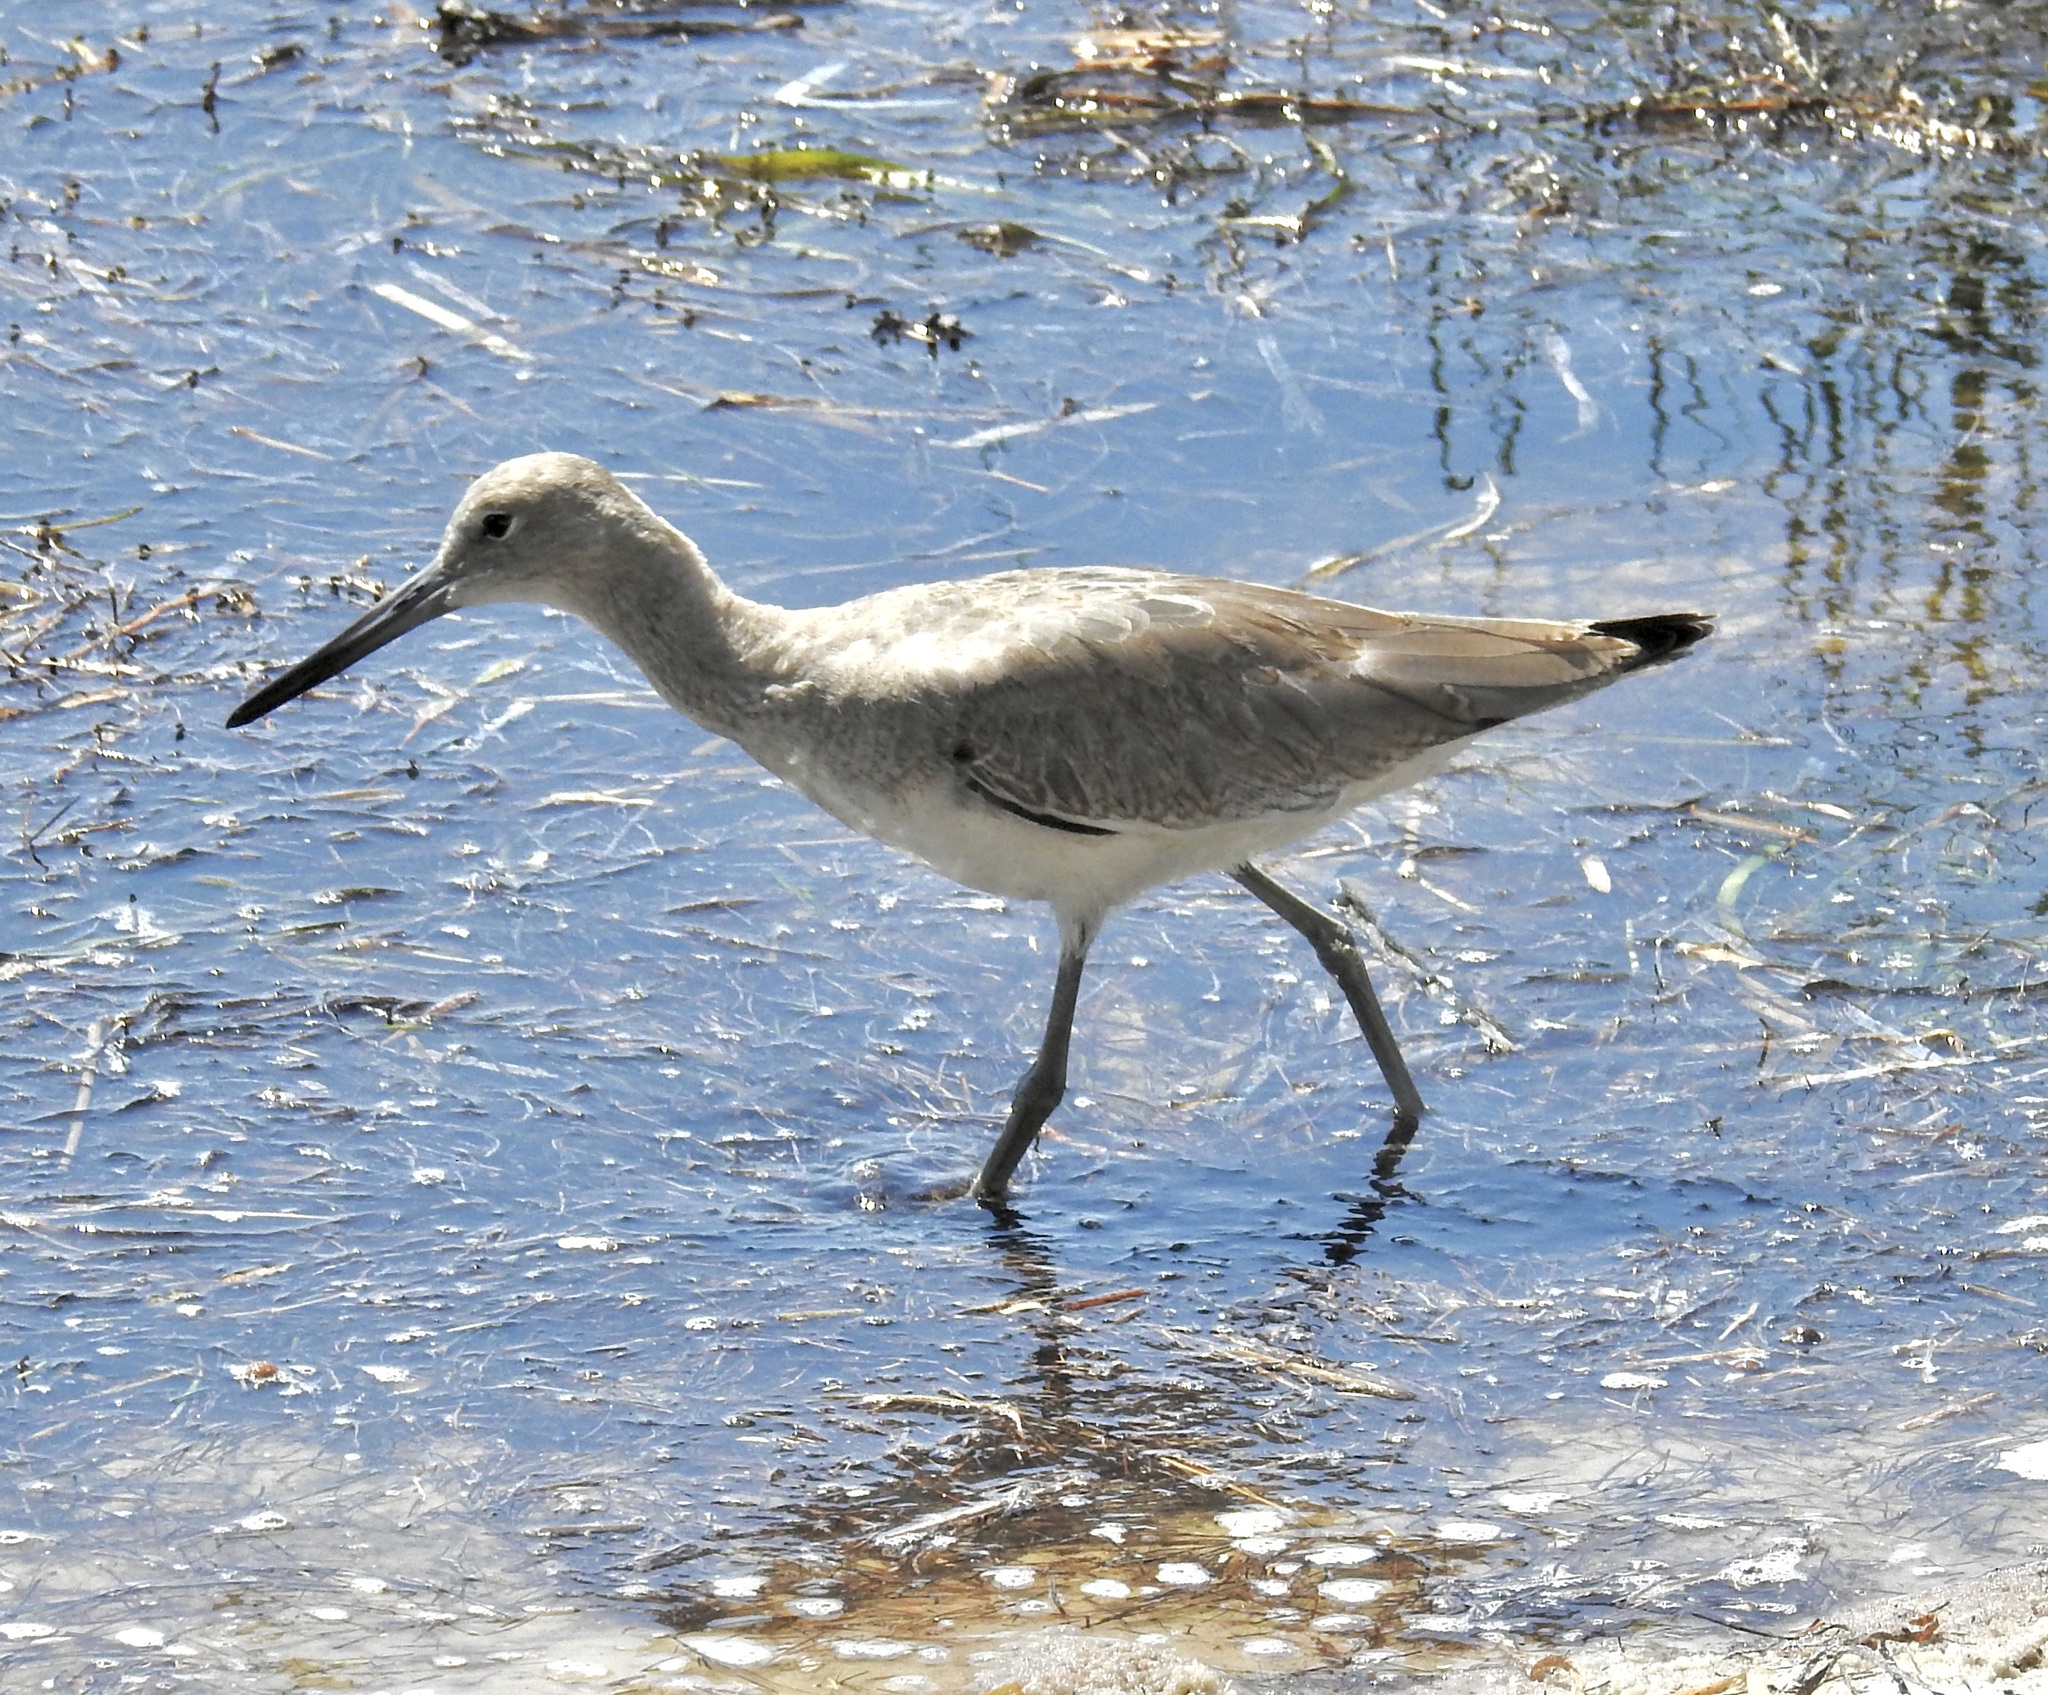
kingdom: Animalia
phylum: Chordata
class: Aves
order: Charadriiformes
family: Scolopacidae
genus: Tringa
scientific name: Tringa semipalmata
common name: Willet
